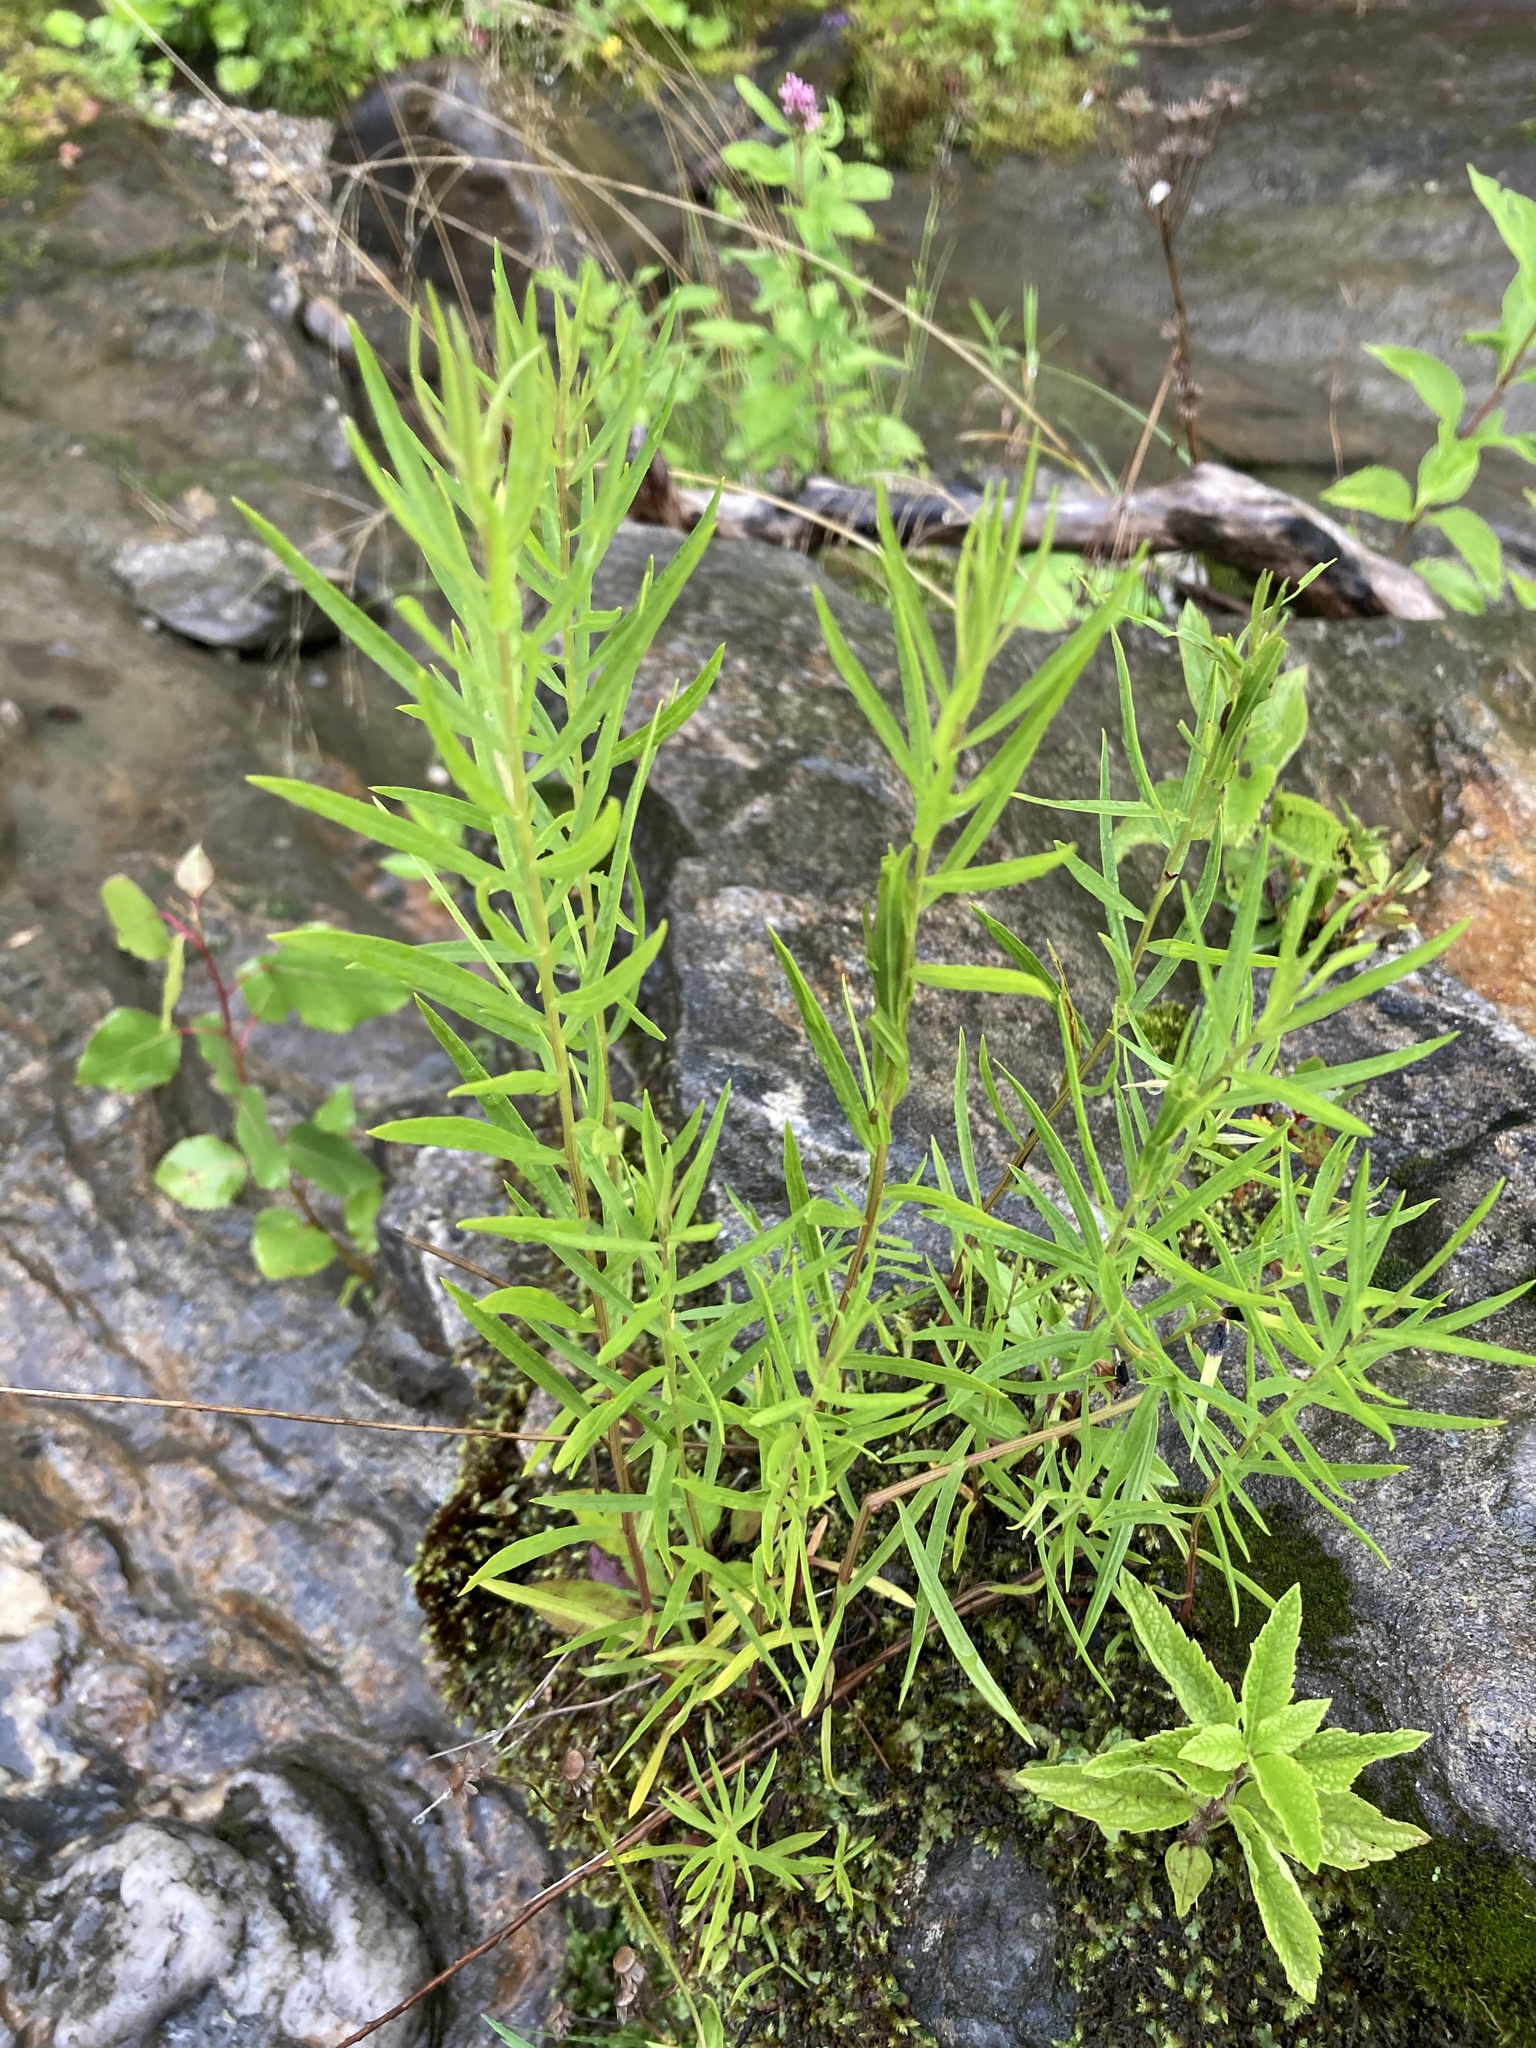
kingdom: Plantae
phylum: Tracheophyta
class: Magnoliopsida
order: Asterales
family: Asteraceae
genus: Ionactis
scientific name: Ionactis linariifolia
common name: Flax-leaf aster
